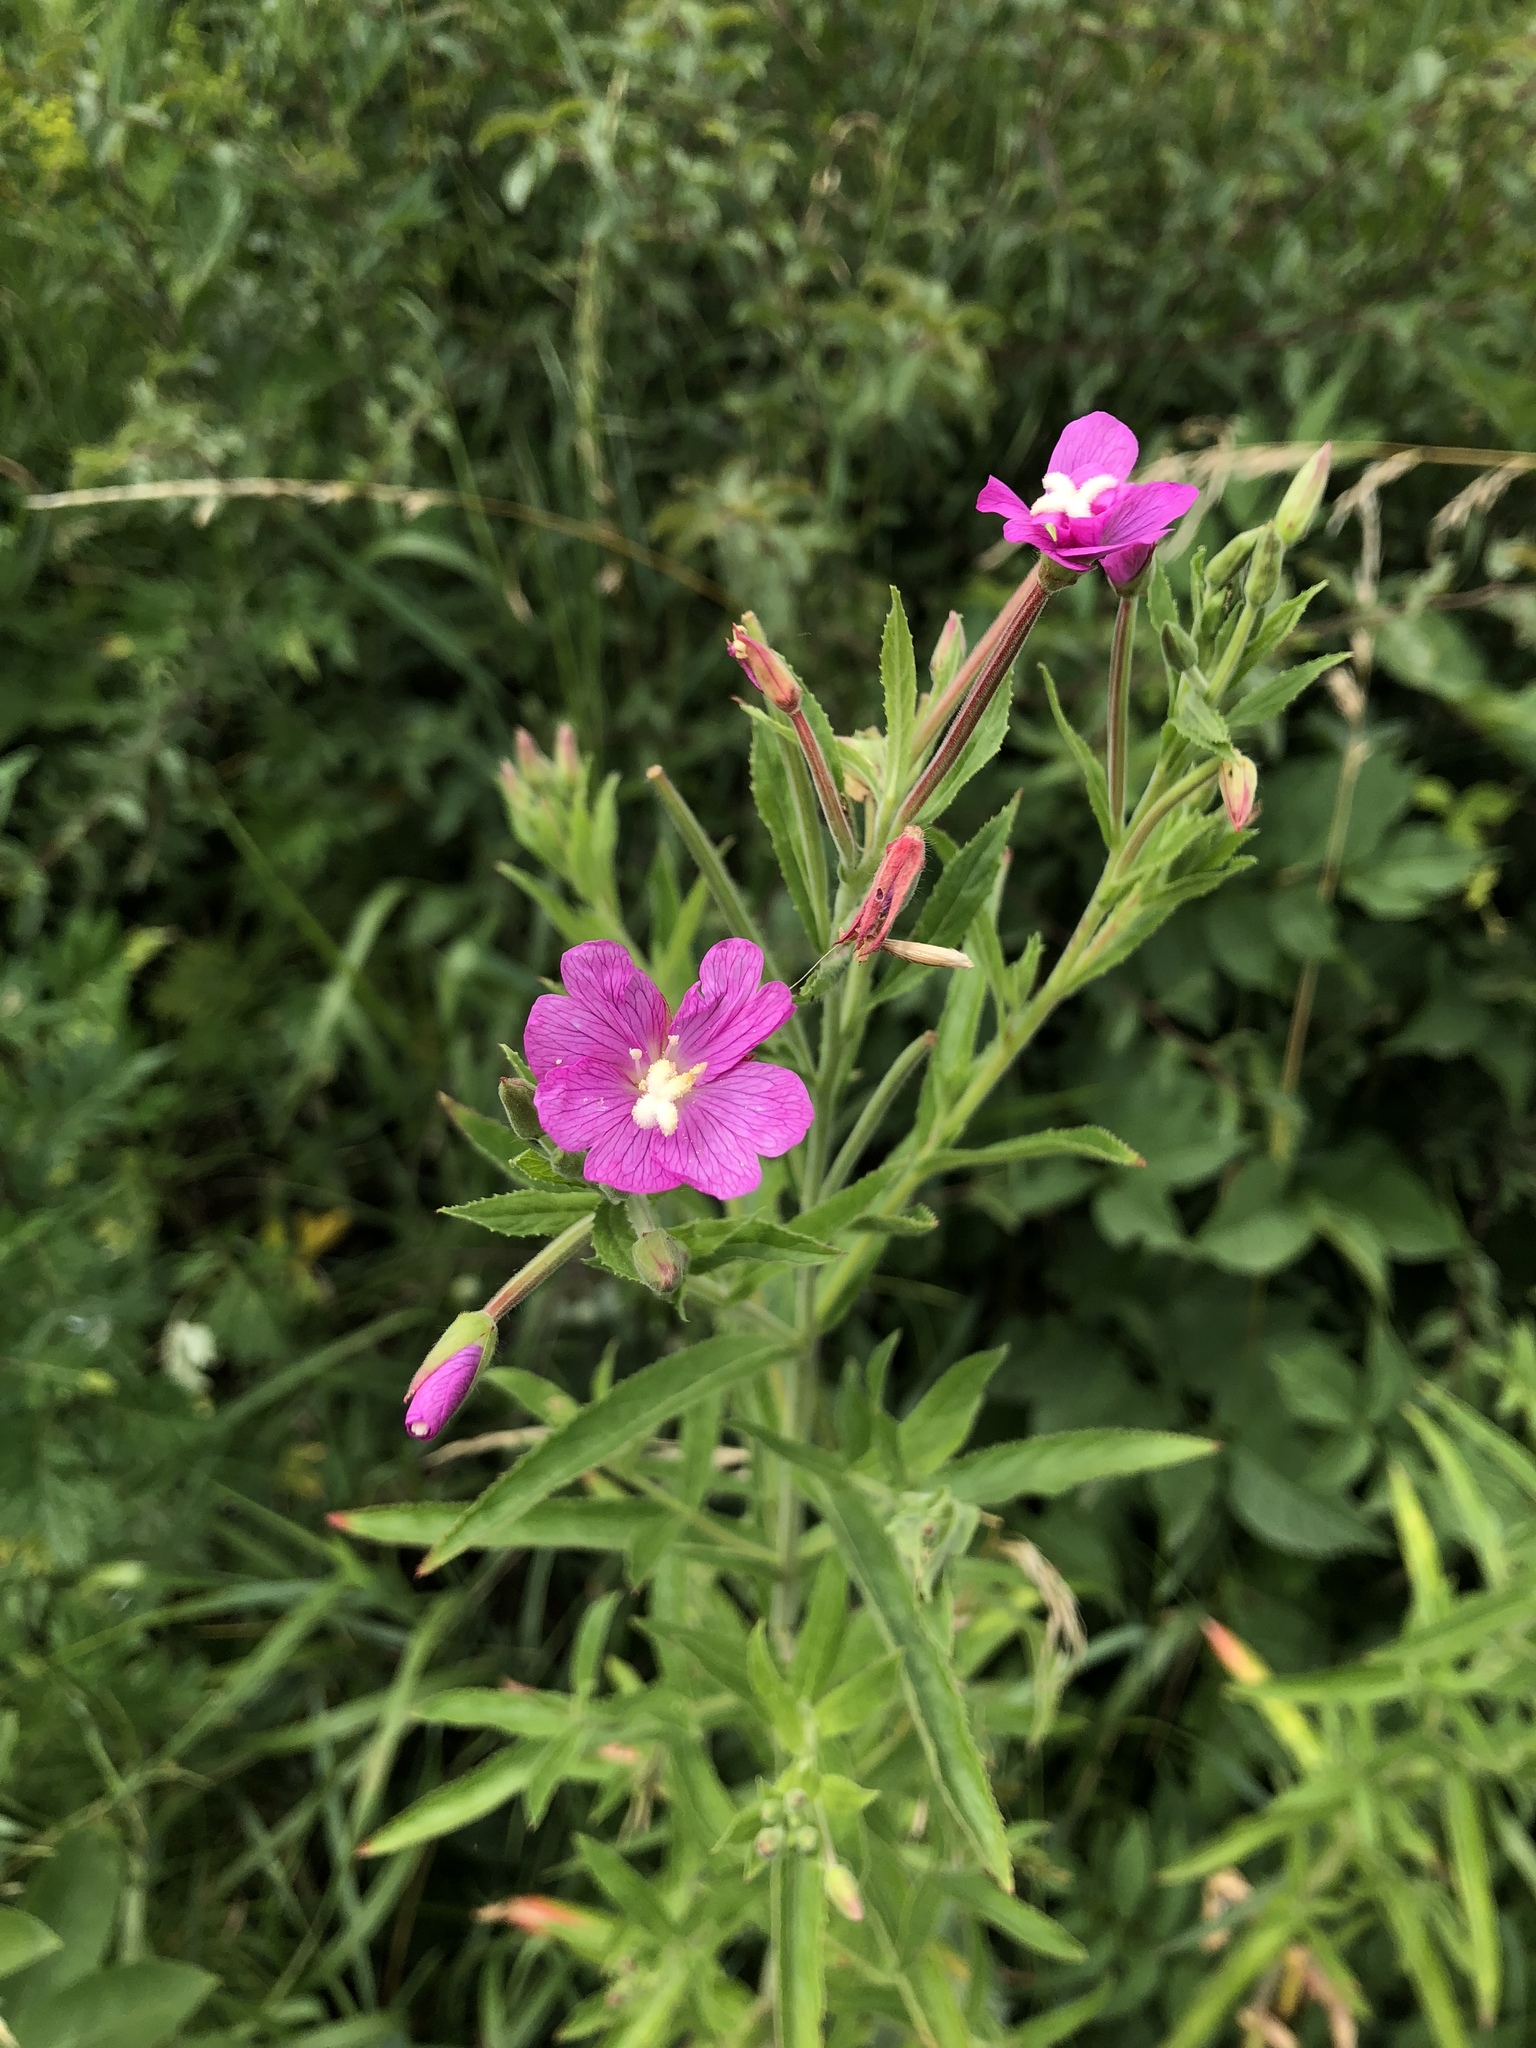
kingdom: Plantae
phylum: Tracheophyta
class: Magnoliopsida
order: Myrtales
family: Onagraceae
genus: Epilobium
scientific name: Epilobium hirsutum
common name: Great willowherb
